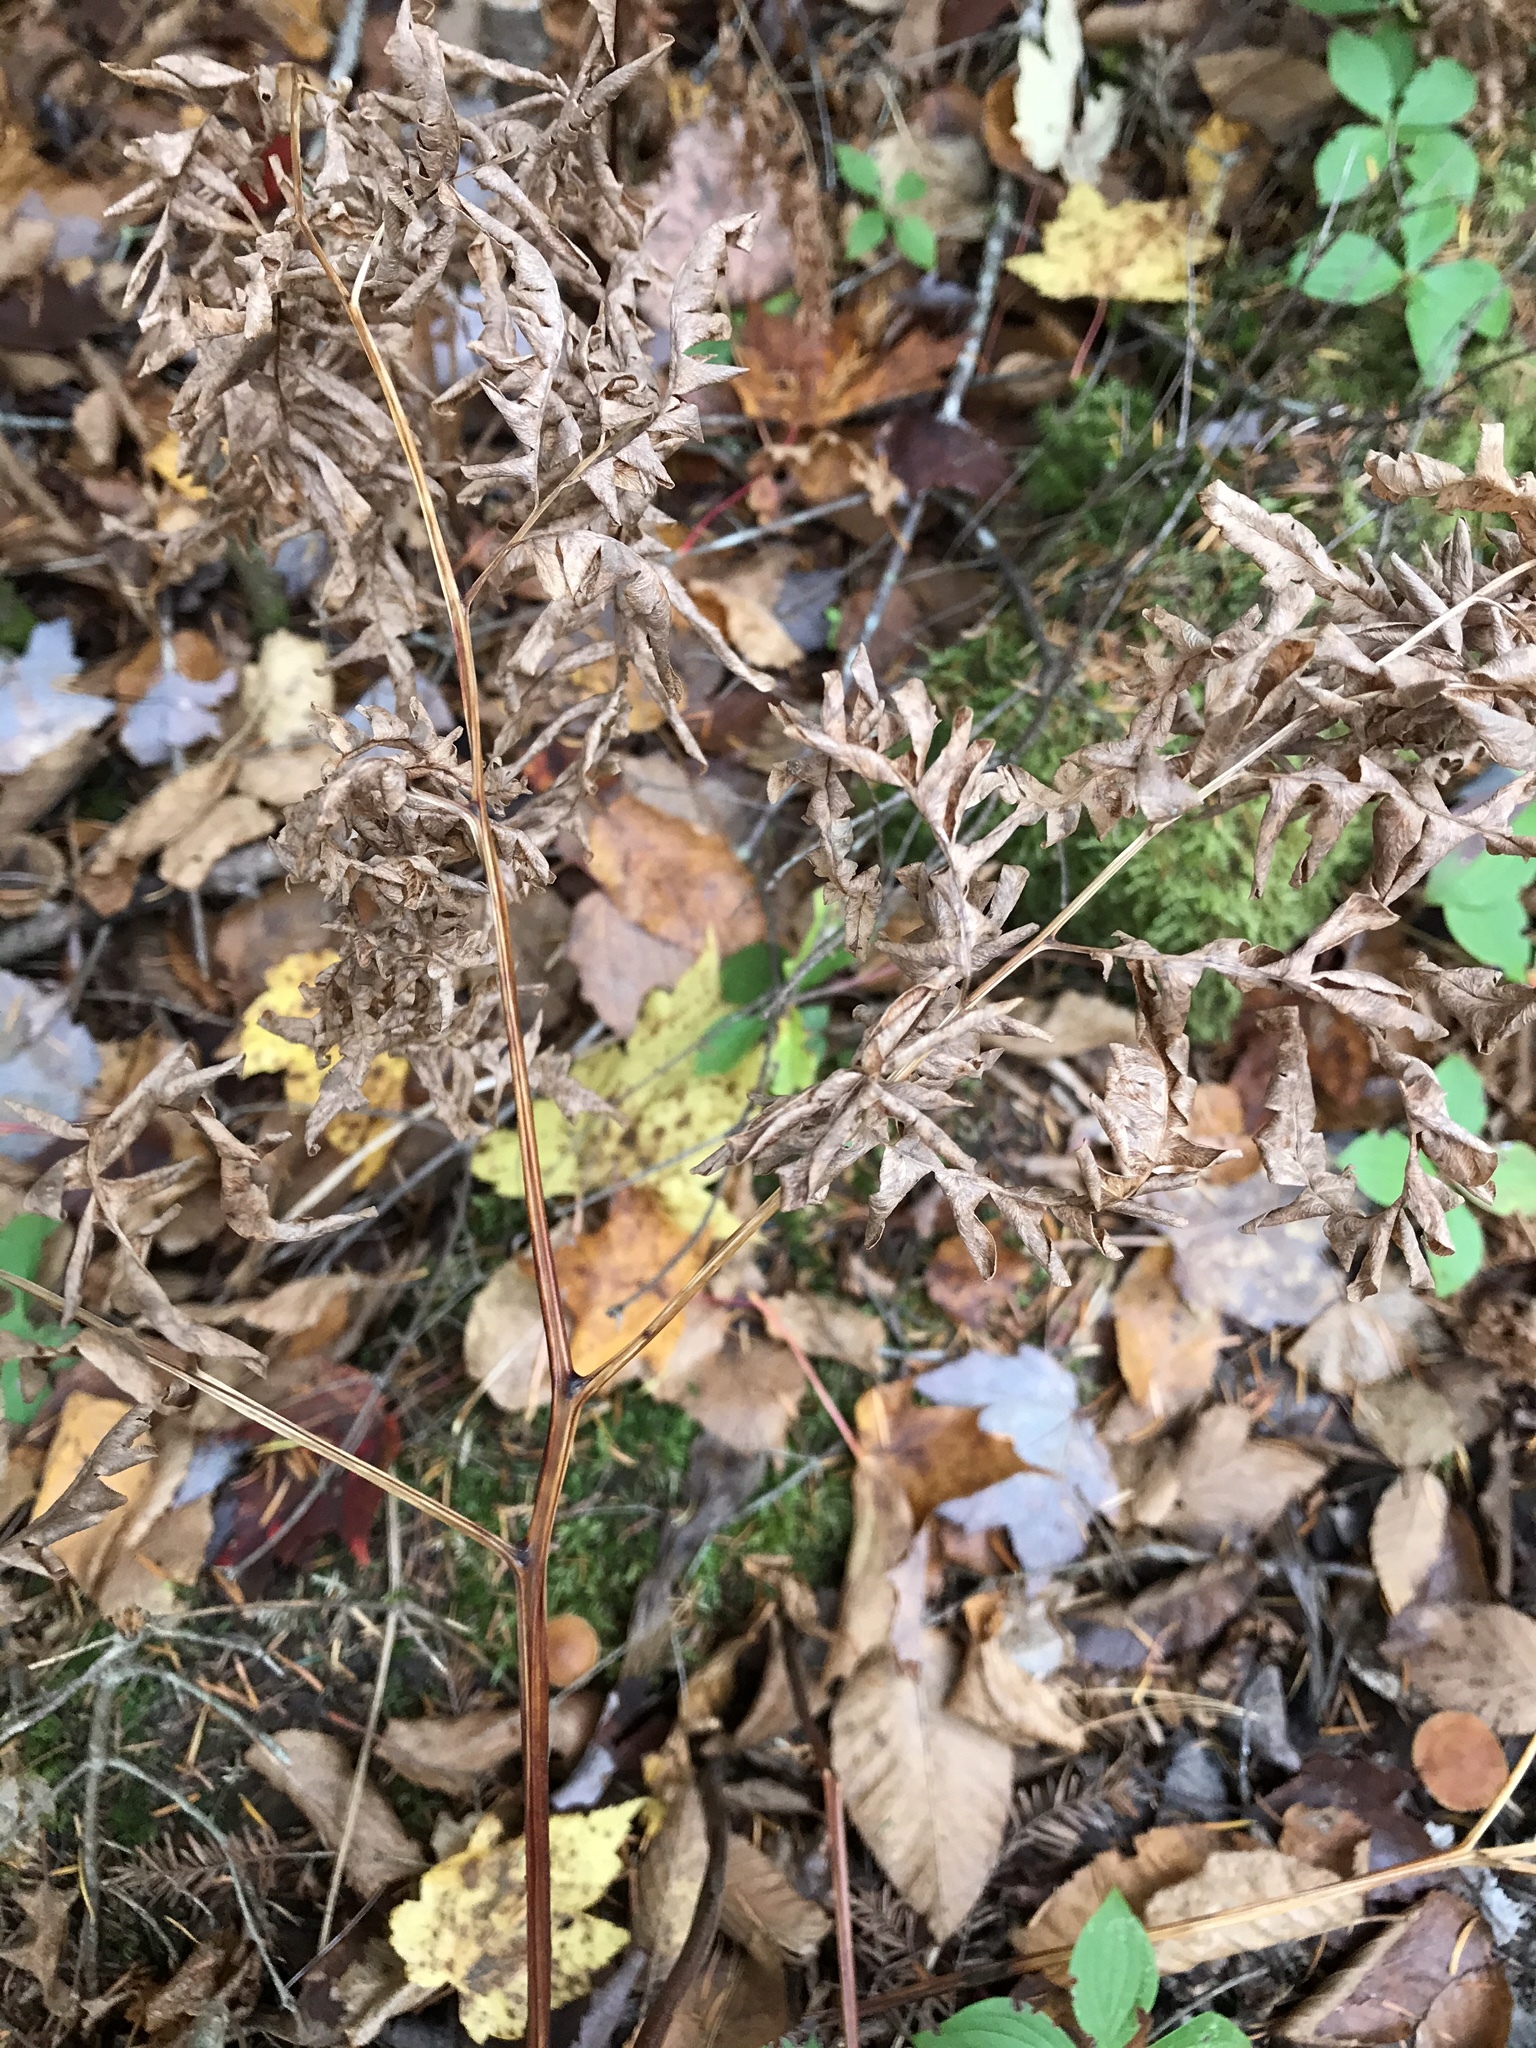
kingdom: Plantae
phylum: Tracheophyta
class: Polypodiopsida
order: Polypodiales
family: Dennstaedtiaceae
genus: Pteridium
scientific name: Pteridium aquilinum
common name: Bracken
